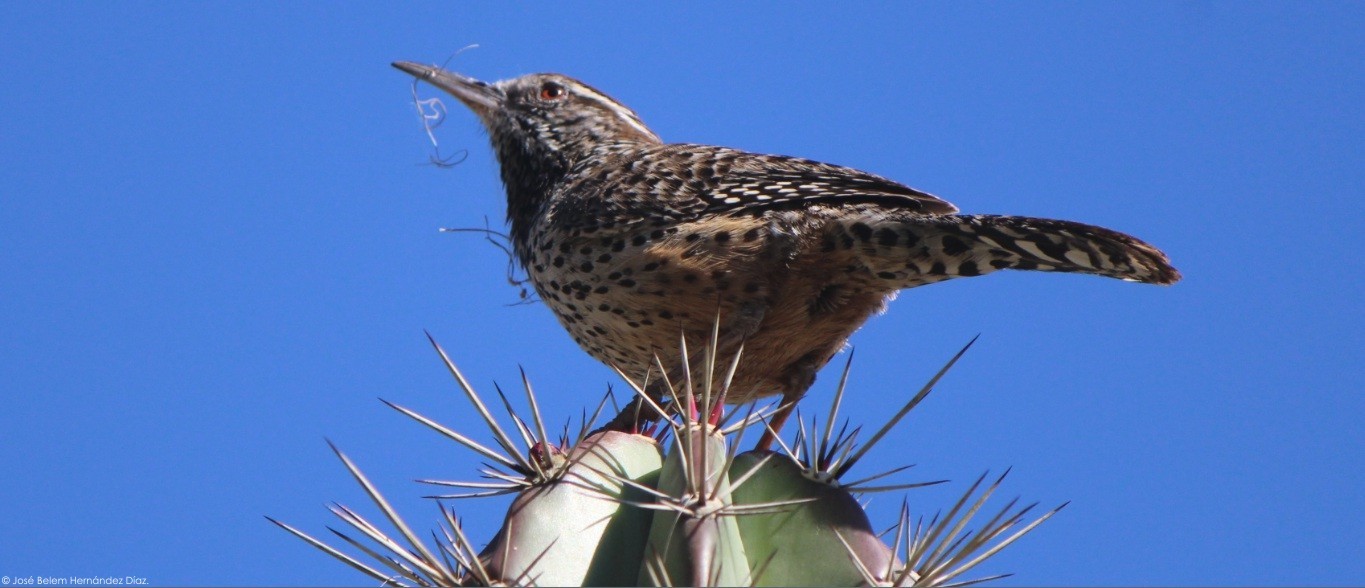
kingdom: Animalia
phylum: Chordata
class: Aves
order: Passeriformes
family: Troglodytidae
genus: Campylorhynchus
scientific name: Campylorhynchus brunneicapillus
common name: Cactus wren
